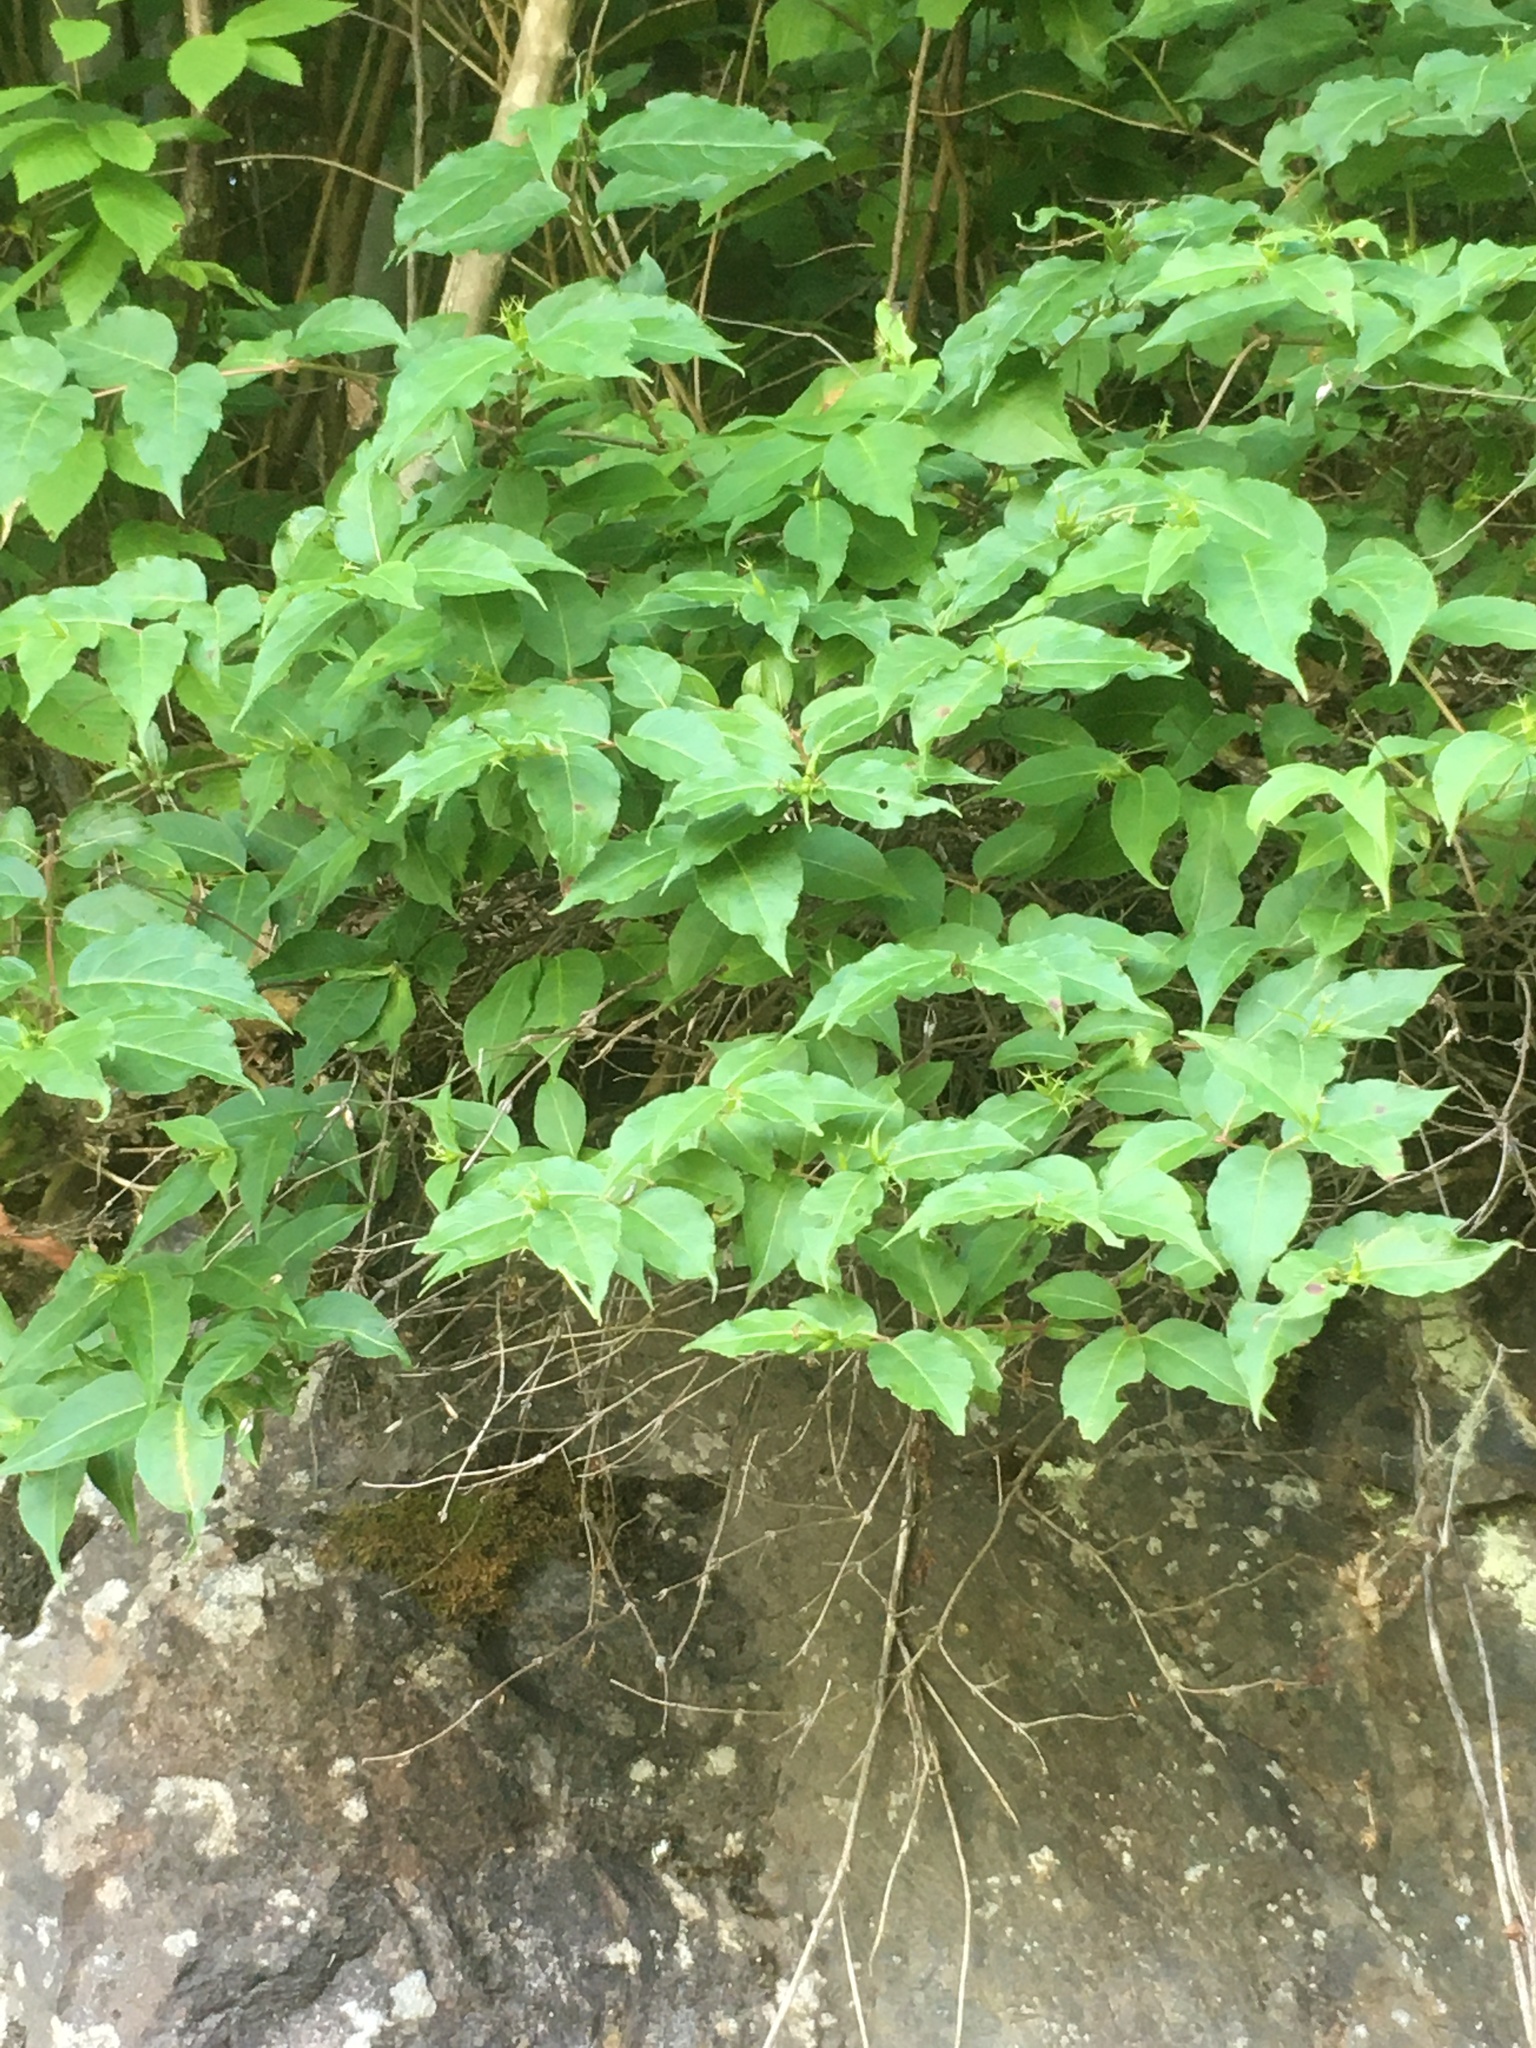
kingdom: Plantae
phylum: Tracheophyta
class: Magnoliopsida
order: Dipsacales
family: Caprifoliaceae
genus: Diervilla
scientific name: Diervilla lonicera
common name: Bush-honeysuckle
